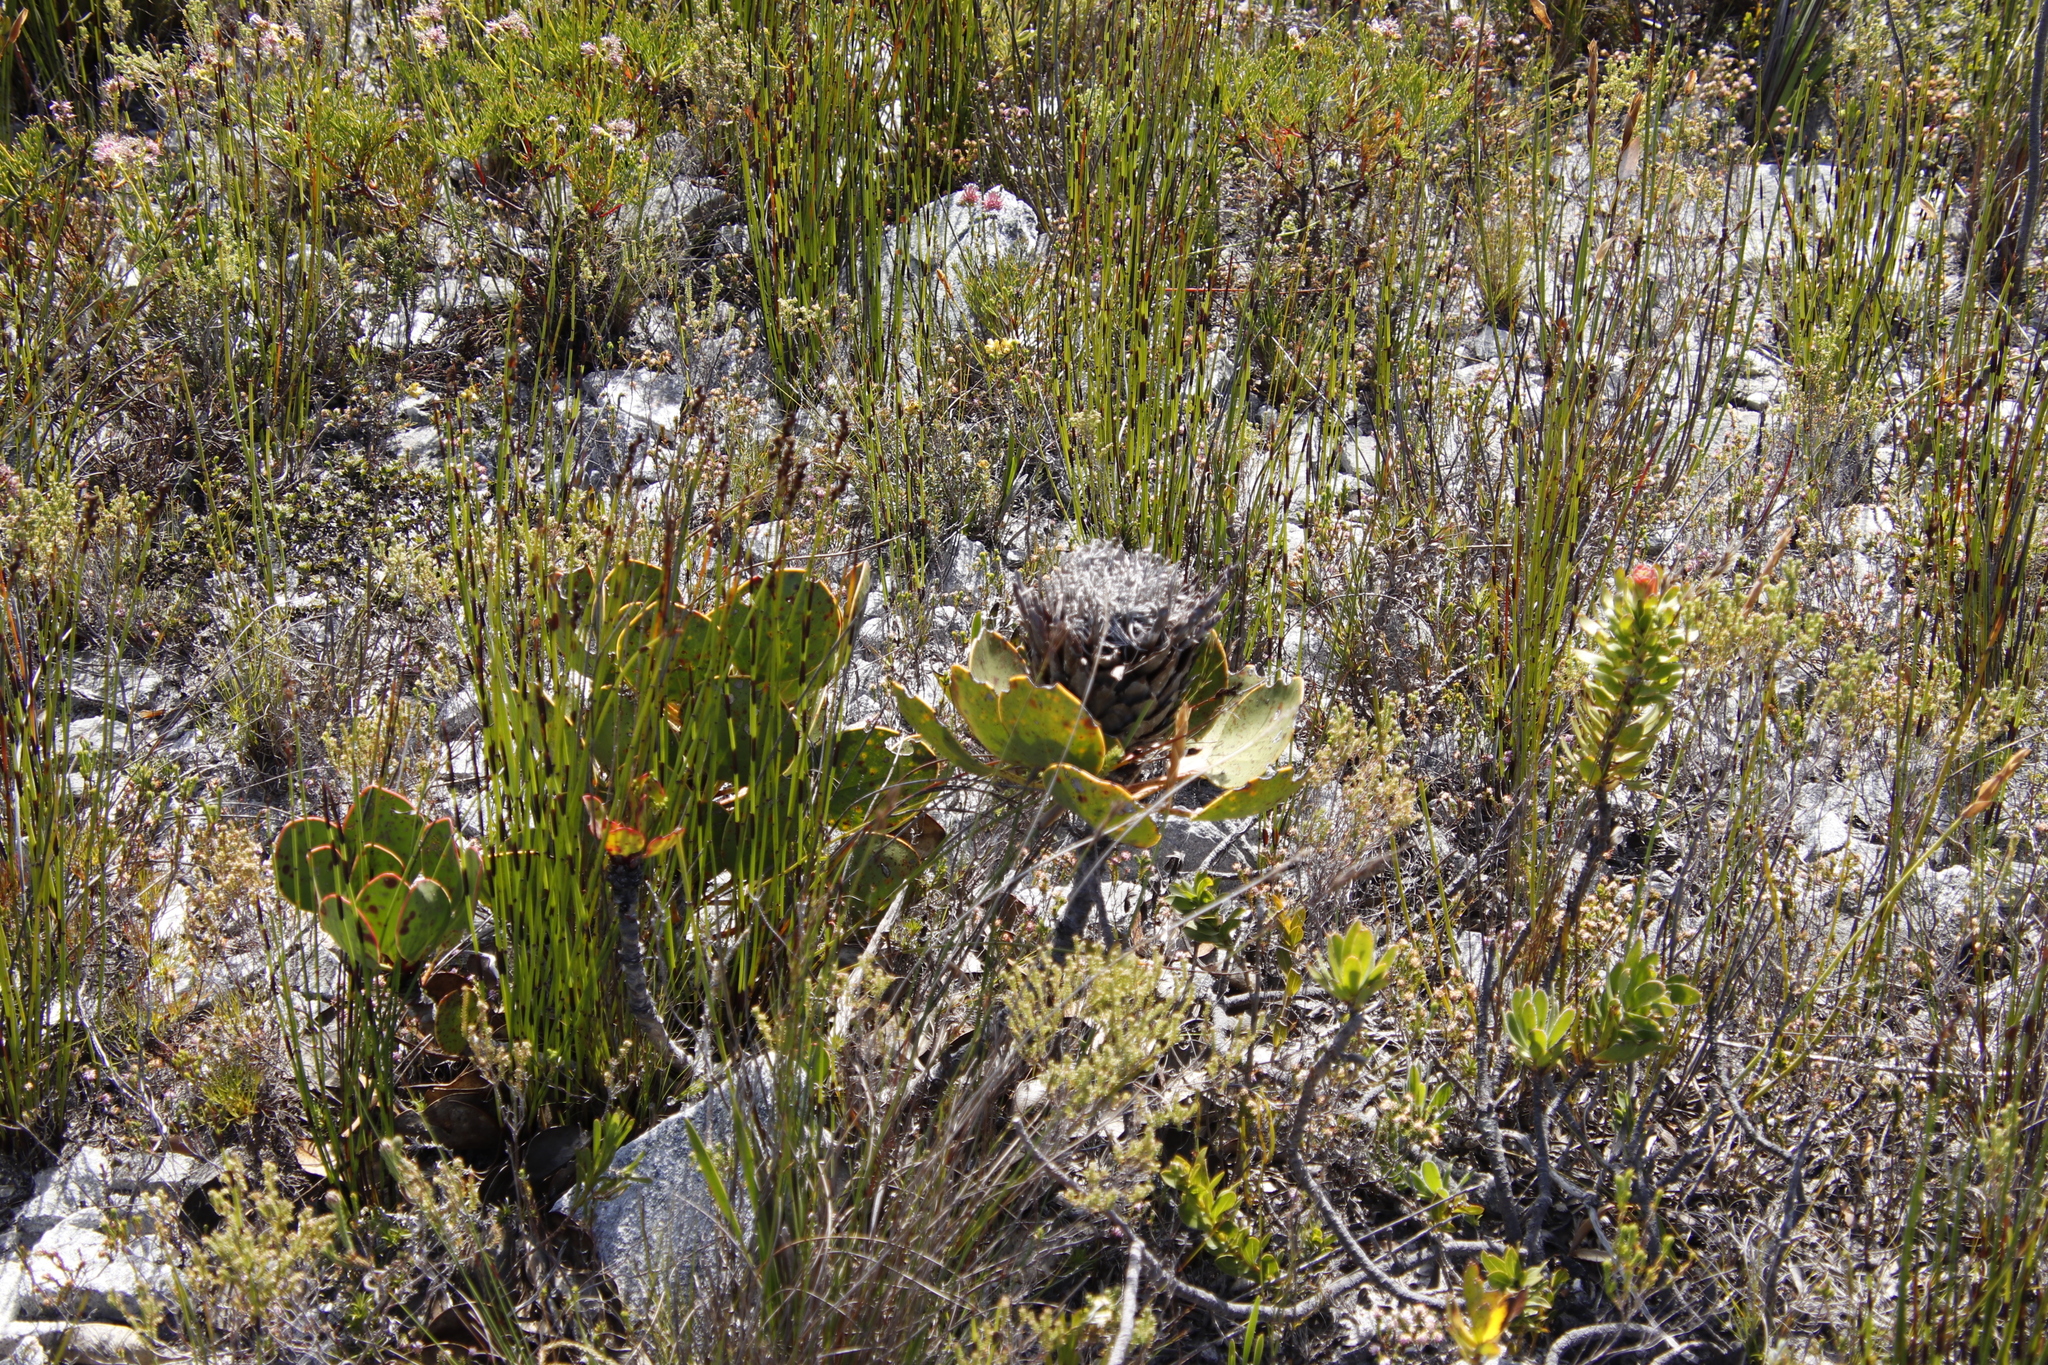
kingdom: Plantae
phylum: Tracheophyta
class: Magnoliopsida
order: Proteales
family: Proteaceae
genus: Protea
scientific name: Protea cynaroides
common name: King protea
